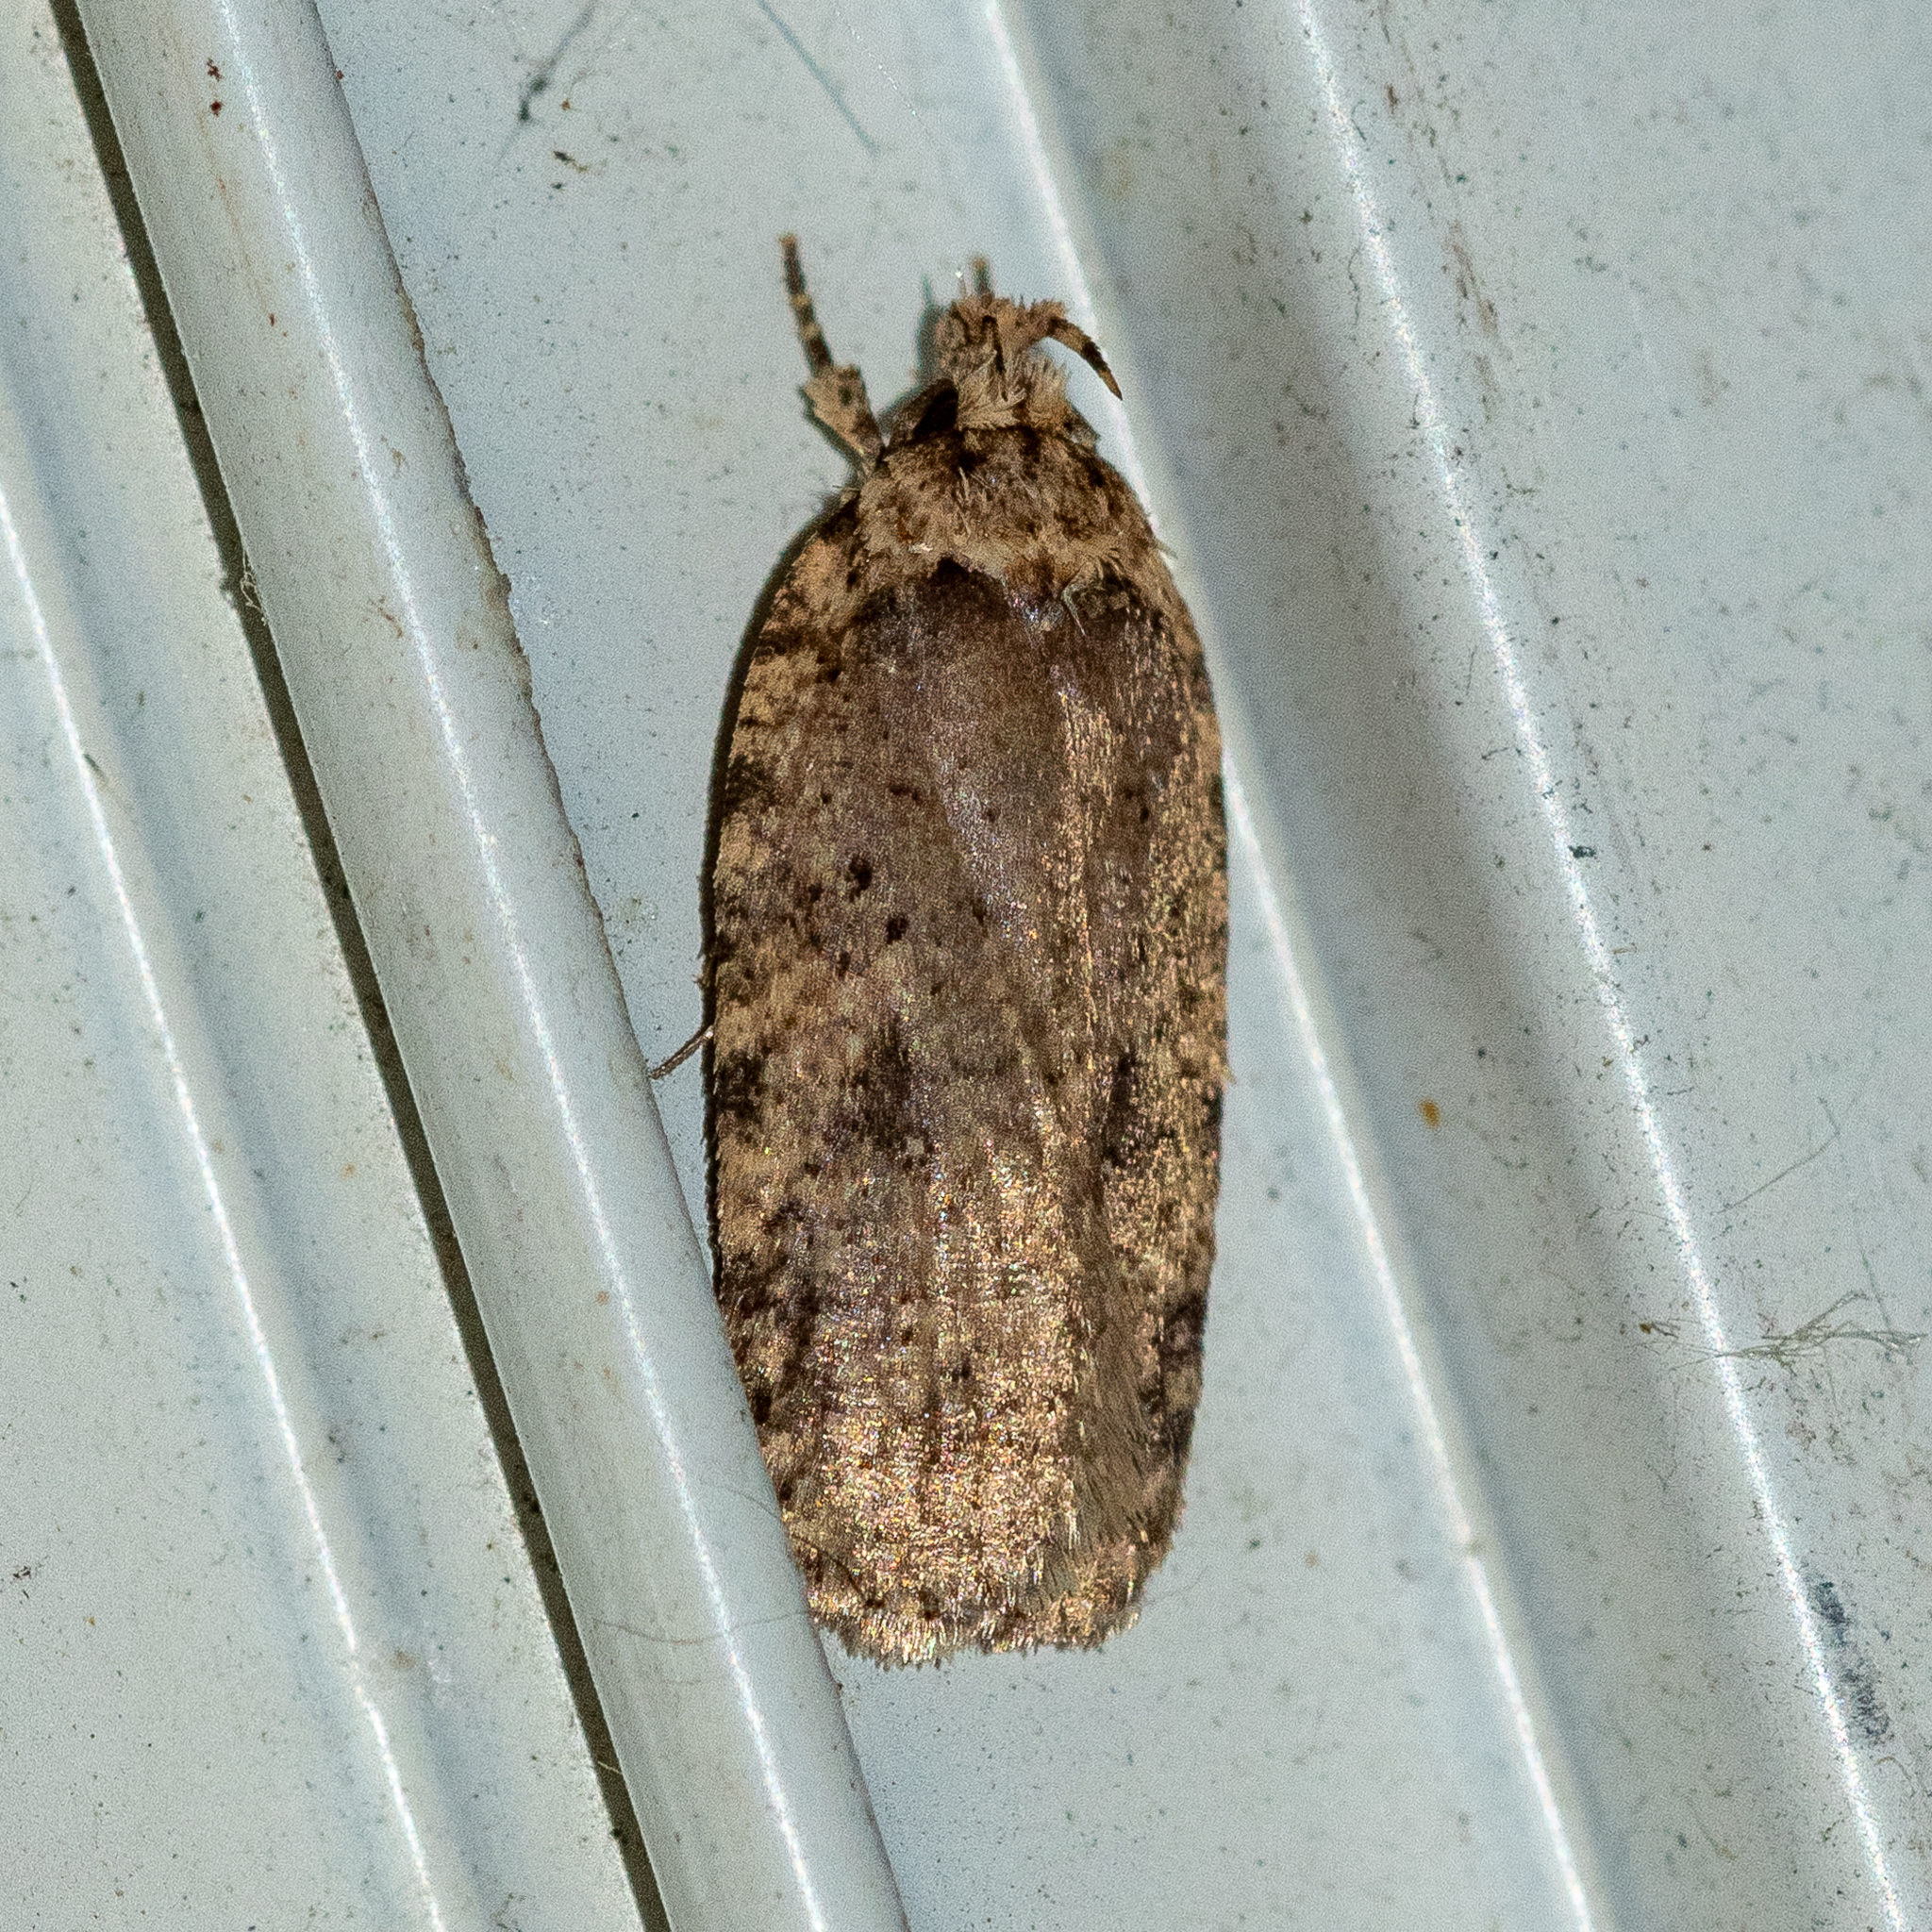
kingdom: Animalia
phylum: Arthropoda
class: Insecta
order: Lepidoptera
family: Depressariidae
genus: Agonopterix
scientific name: Agonopterix pulvipennella
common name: Goldenrod leafffolder
